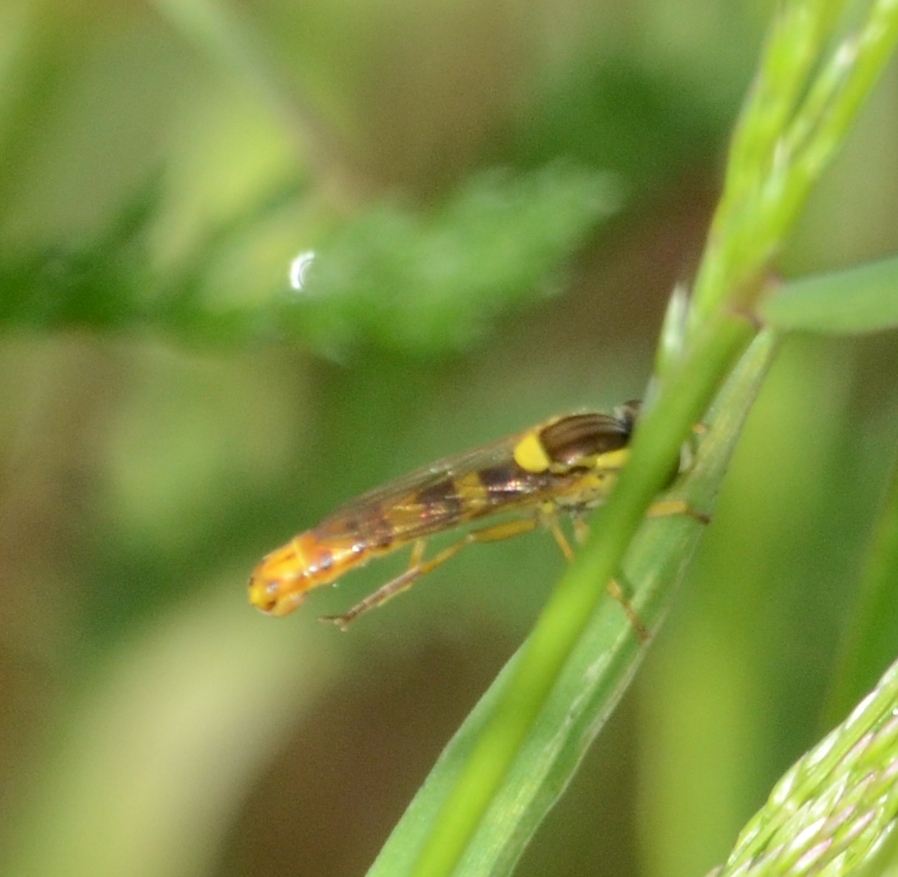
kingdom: Animalia
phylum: Arthropoda
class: Insecta
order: Diptera
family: Syrphidae
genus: Sphaerophoria
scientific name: Sphaerophoria scripta
